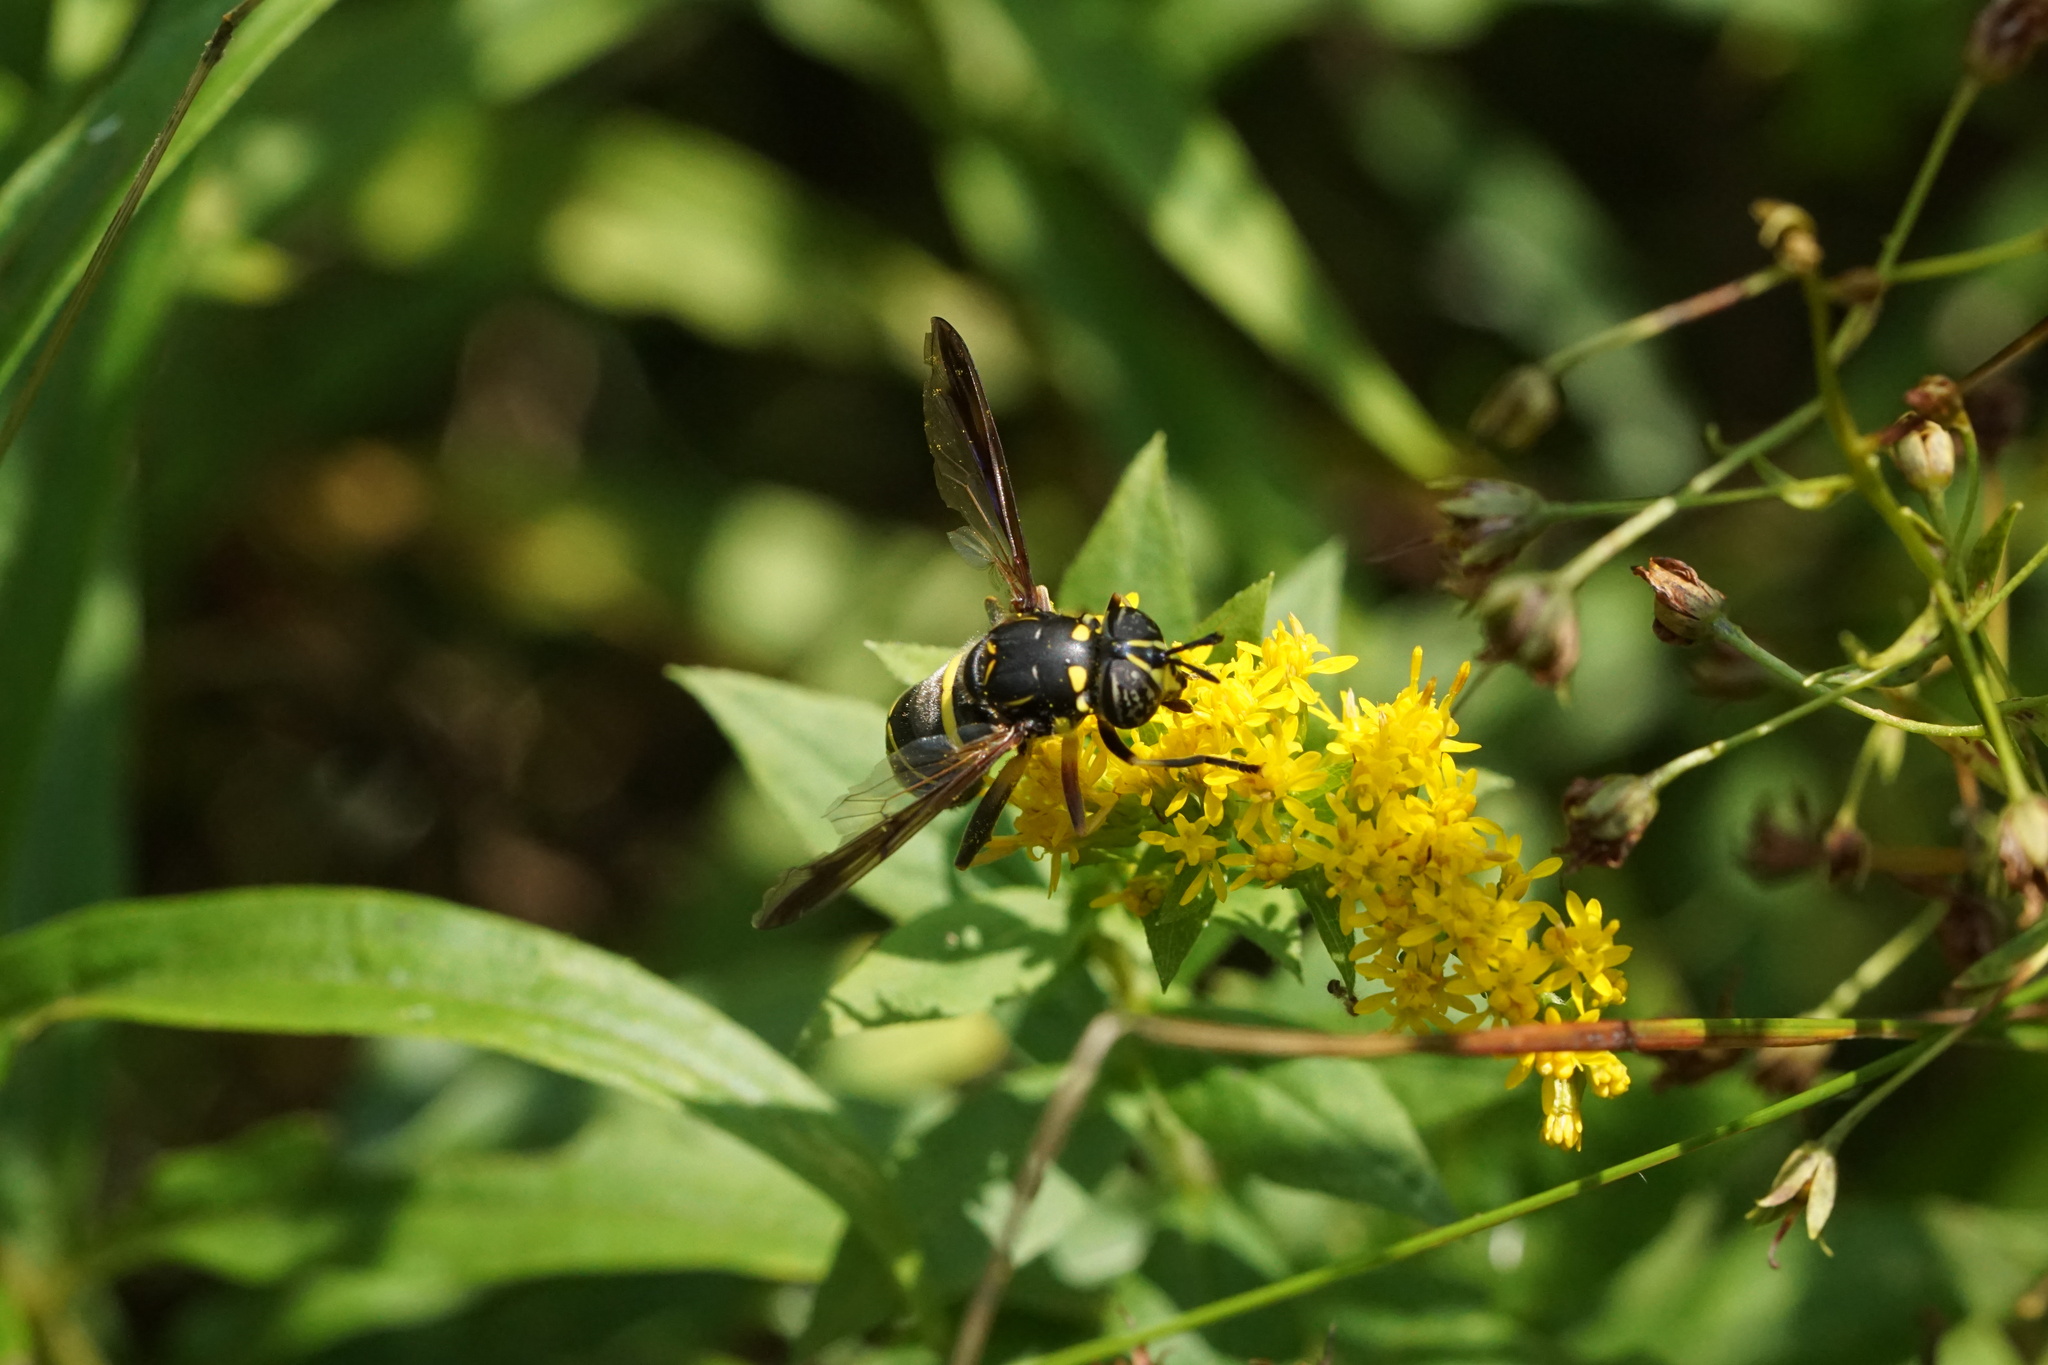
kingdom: Animalia
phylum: Arthropoda
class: Insecta
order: Diptera
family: Syrphidae
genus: Spilomyia
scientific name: Spilomyia sayi
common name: Four-lined hornet fly
